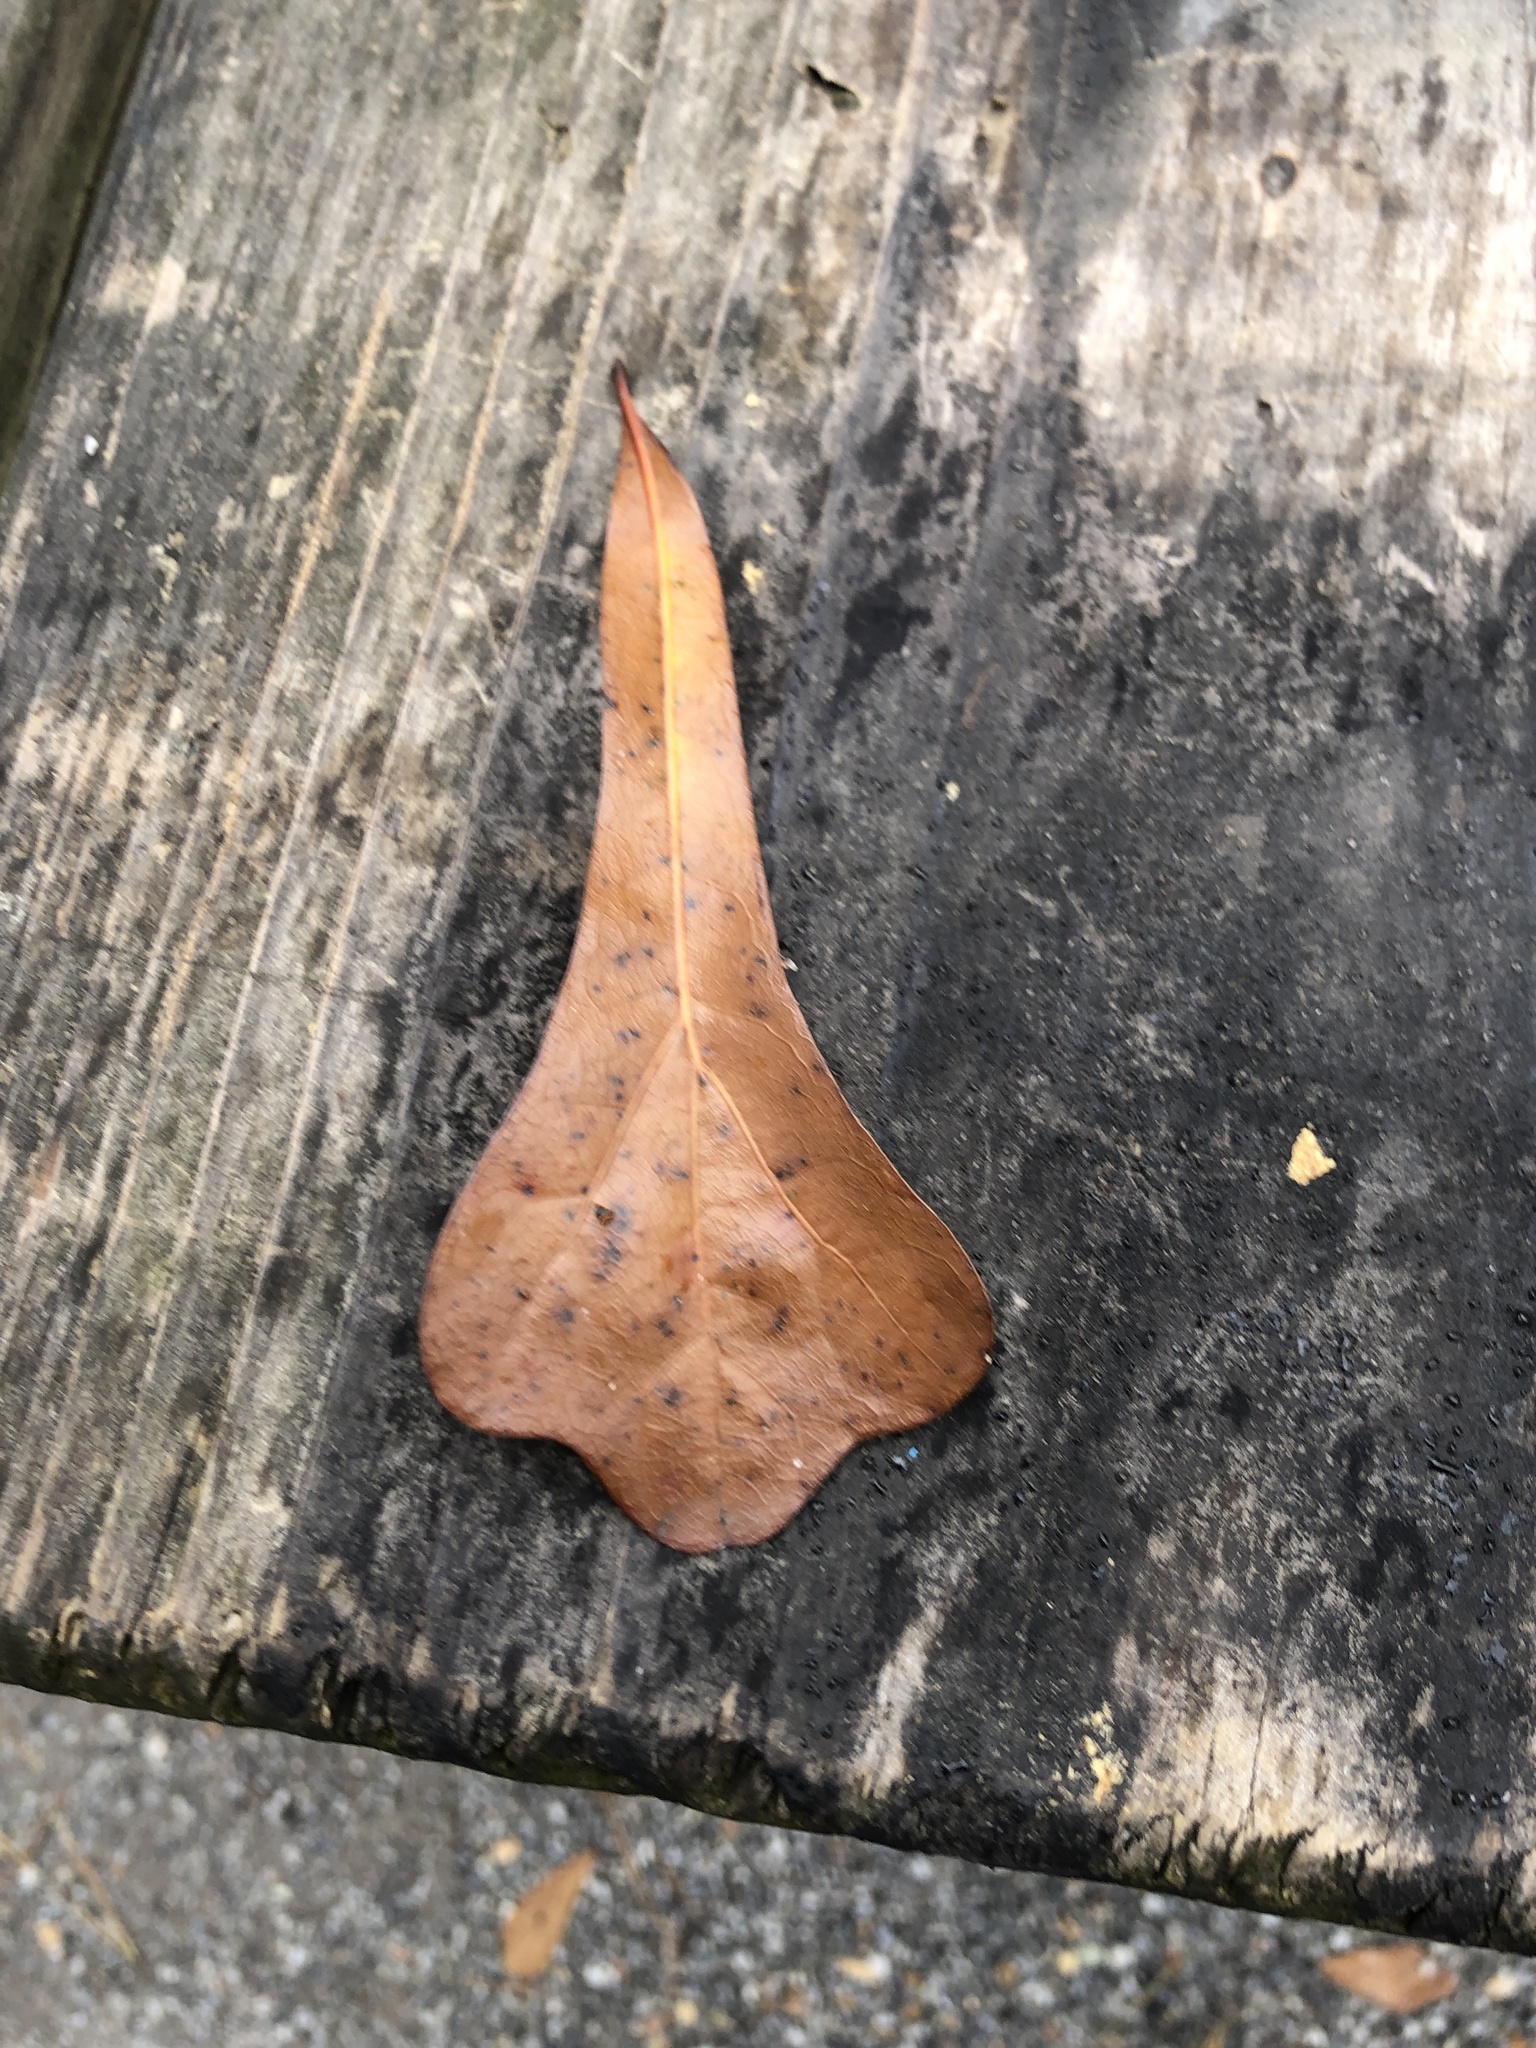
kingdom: Plantae
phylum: Tracheophyta
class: Magnoliopsida
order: Fagales
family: Fagaceae
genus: Quercus
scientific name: Quercus nigra
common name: Water oak
